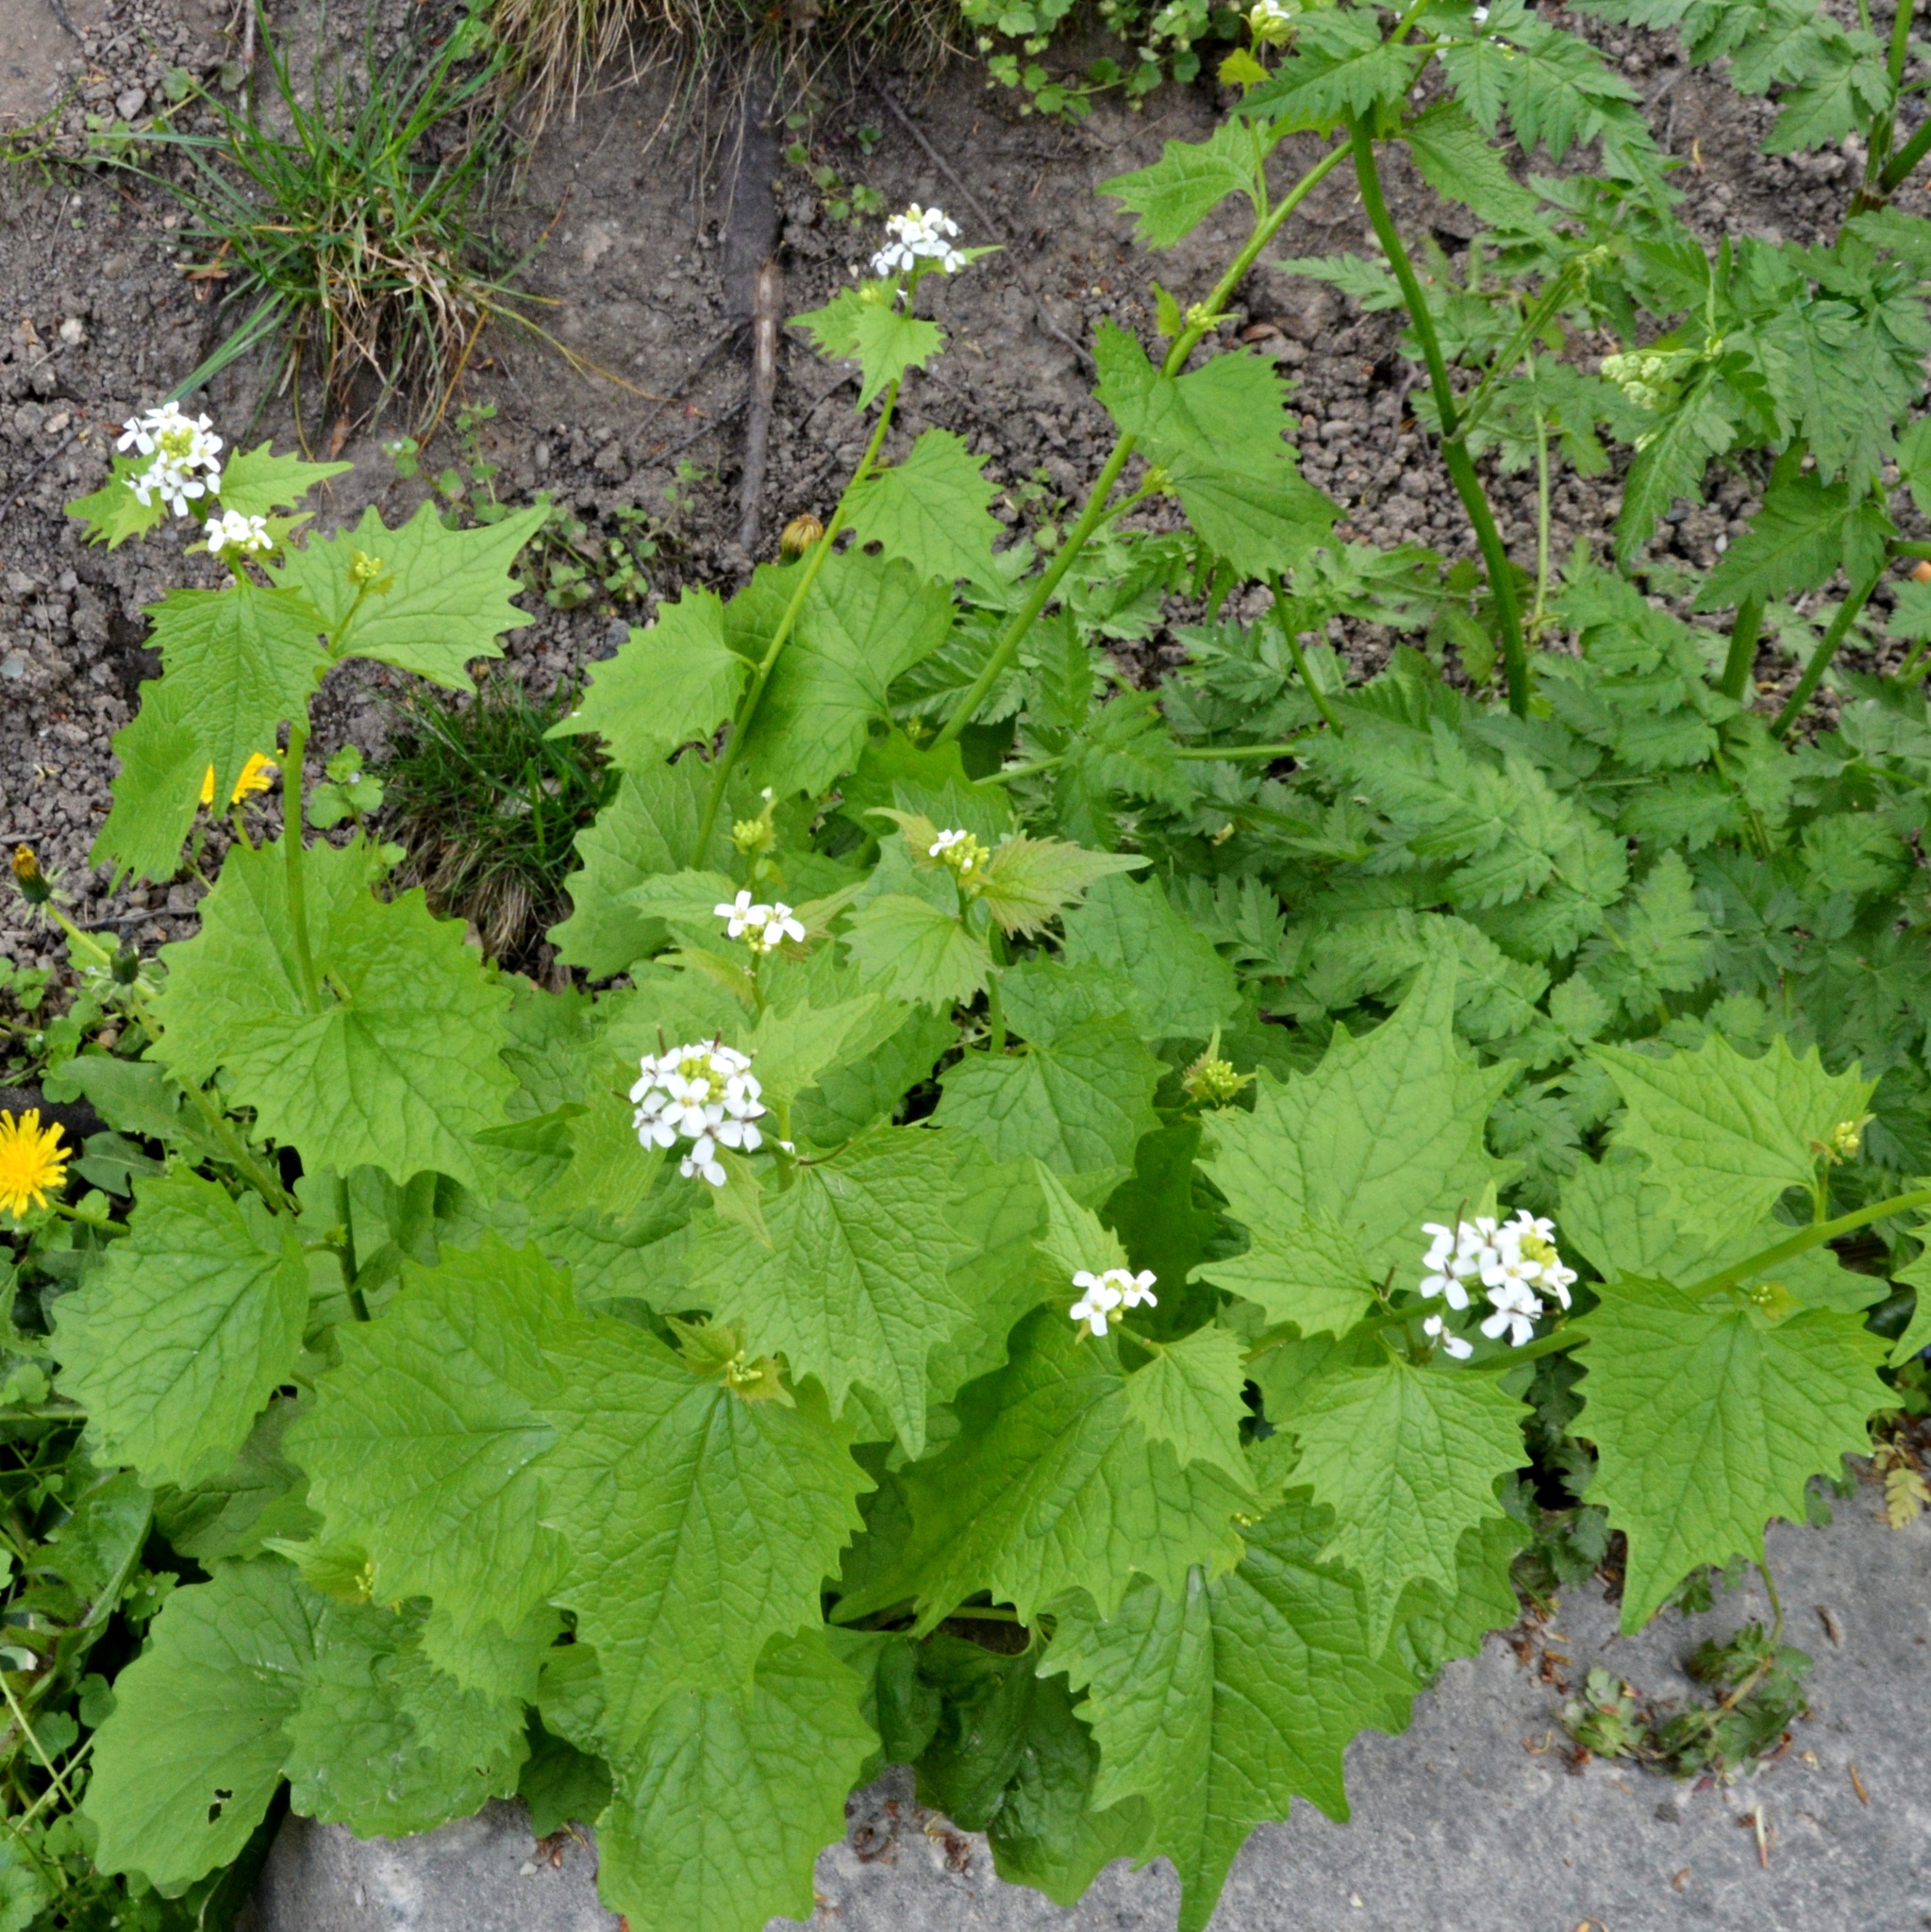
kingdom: Plantae
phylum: Tracheophyta
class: Magnoliopsida
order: Brassicales
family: Brassicaceae
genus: Alliaria
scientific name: Alliaria petiolata
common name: Garlic mustard
